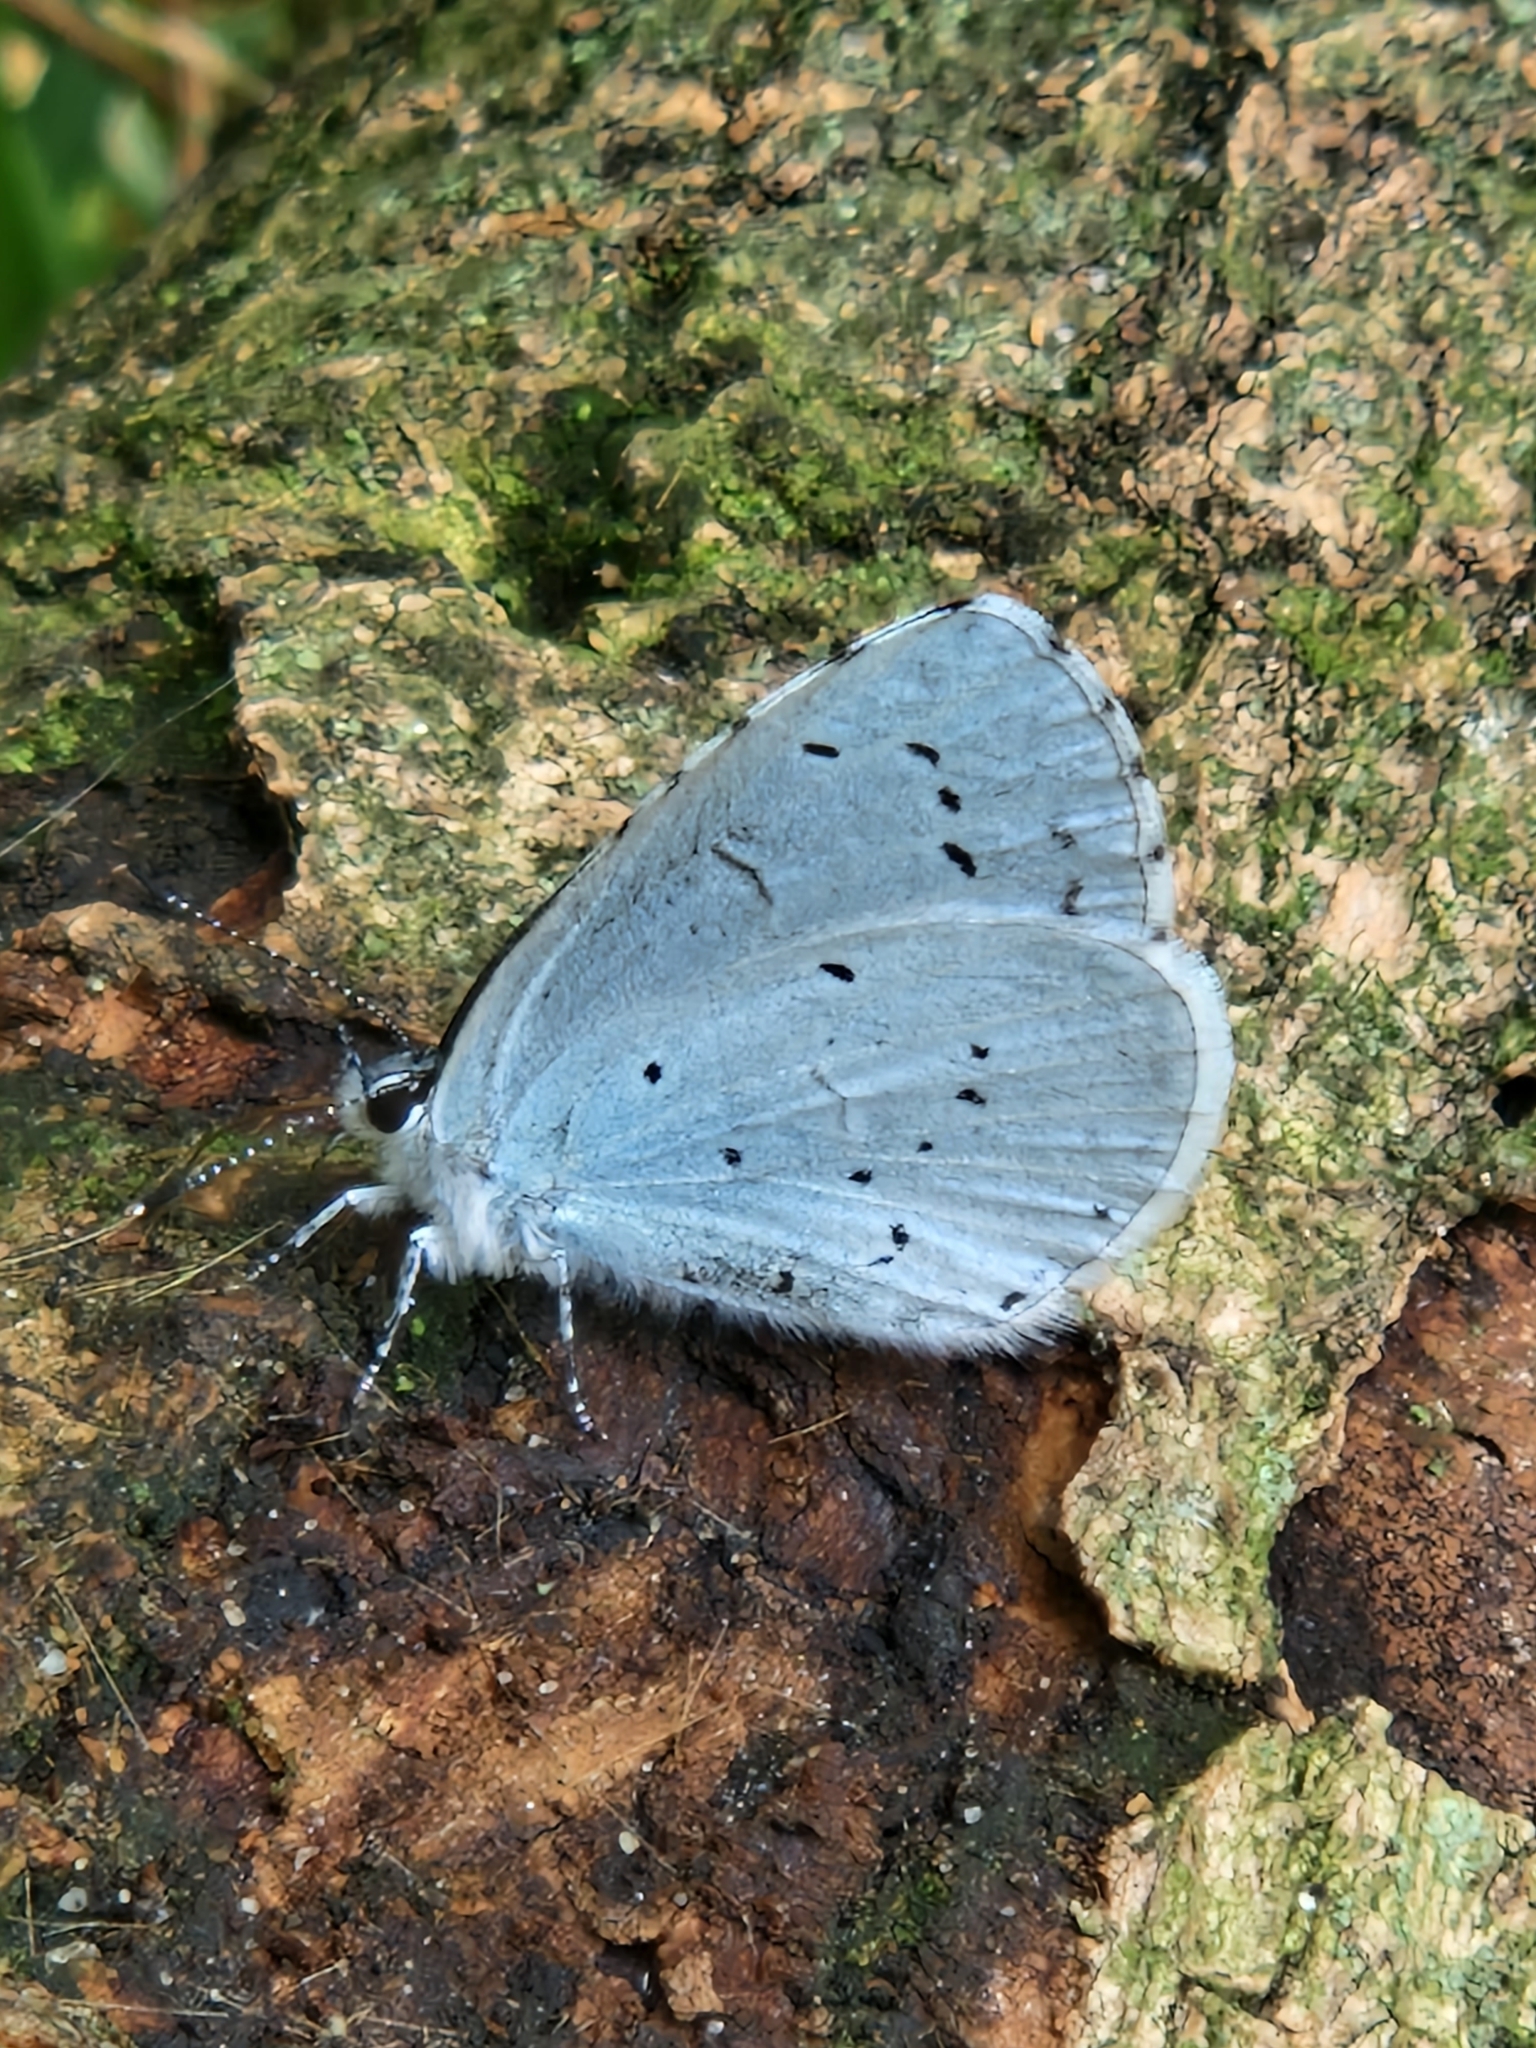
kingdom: Animalia
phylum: Arthropoda
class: Insecta
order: Lepidoptera
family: Lycaenidae
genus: Celastrina
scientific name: Celastrina argiolus
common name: Holly blue
